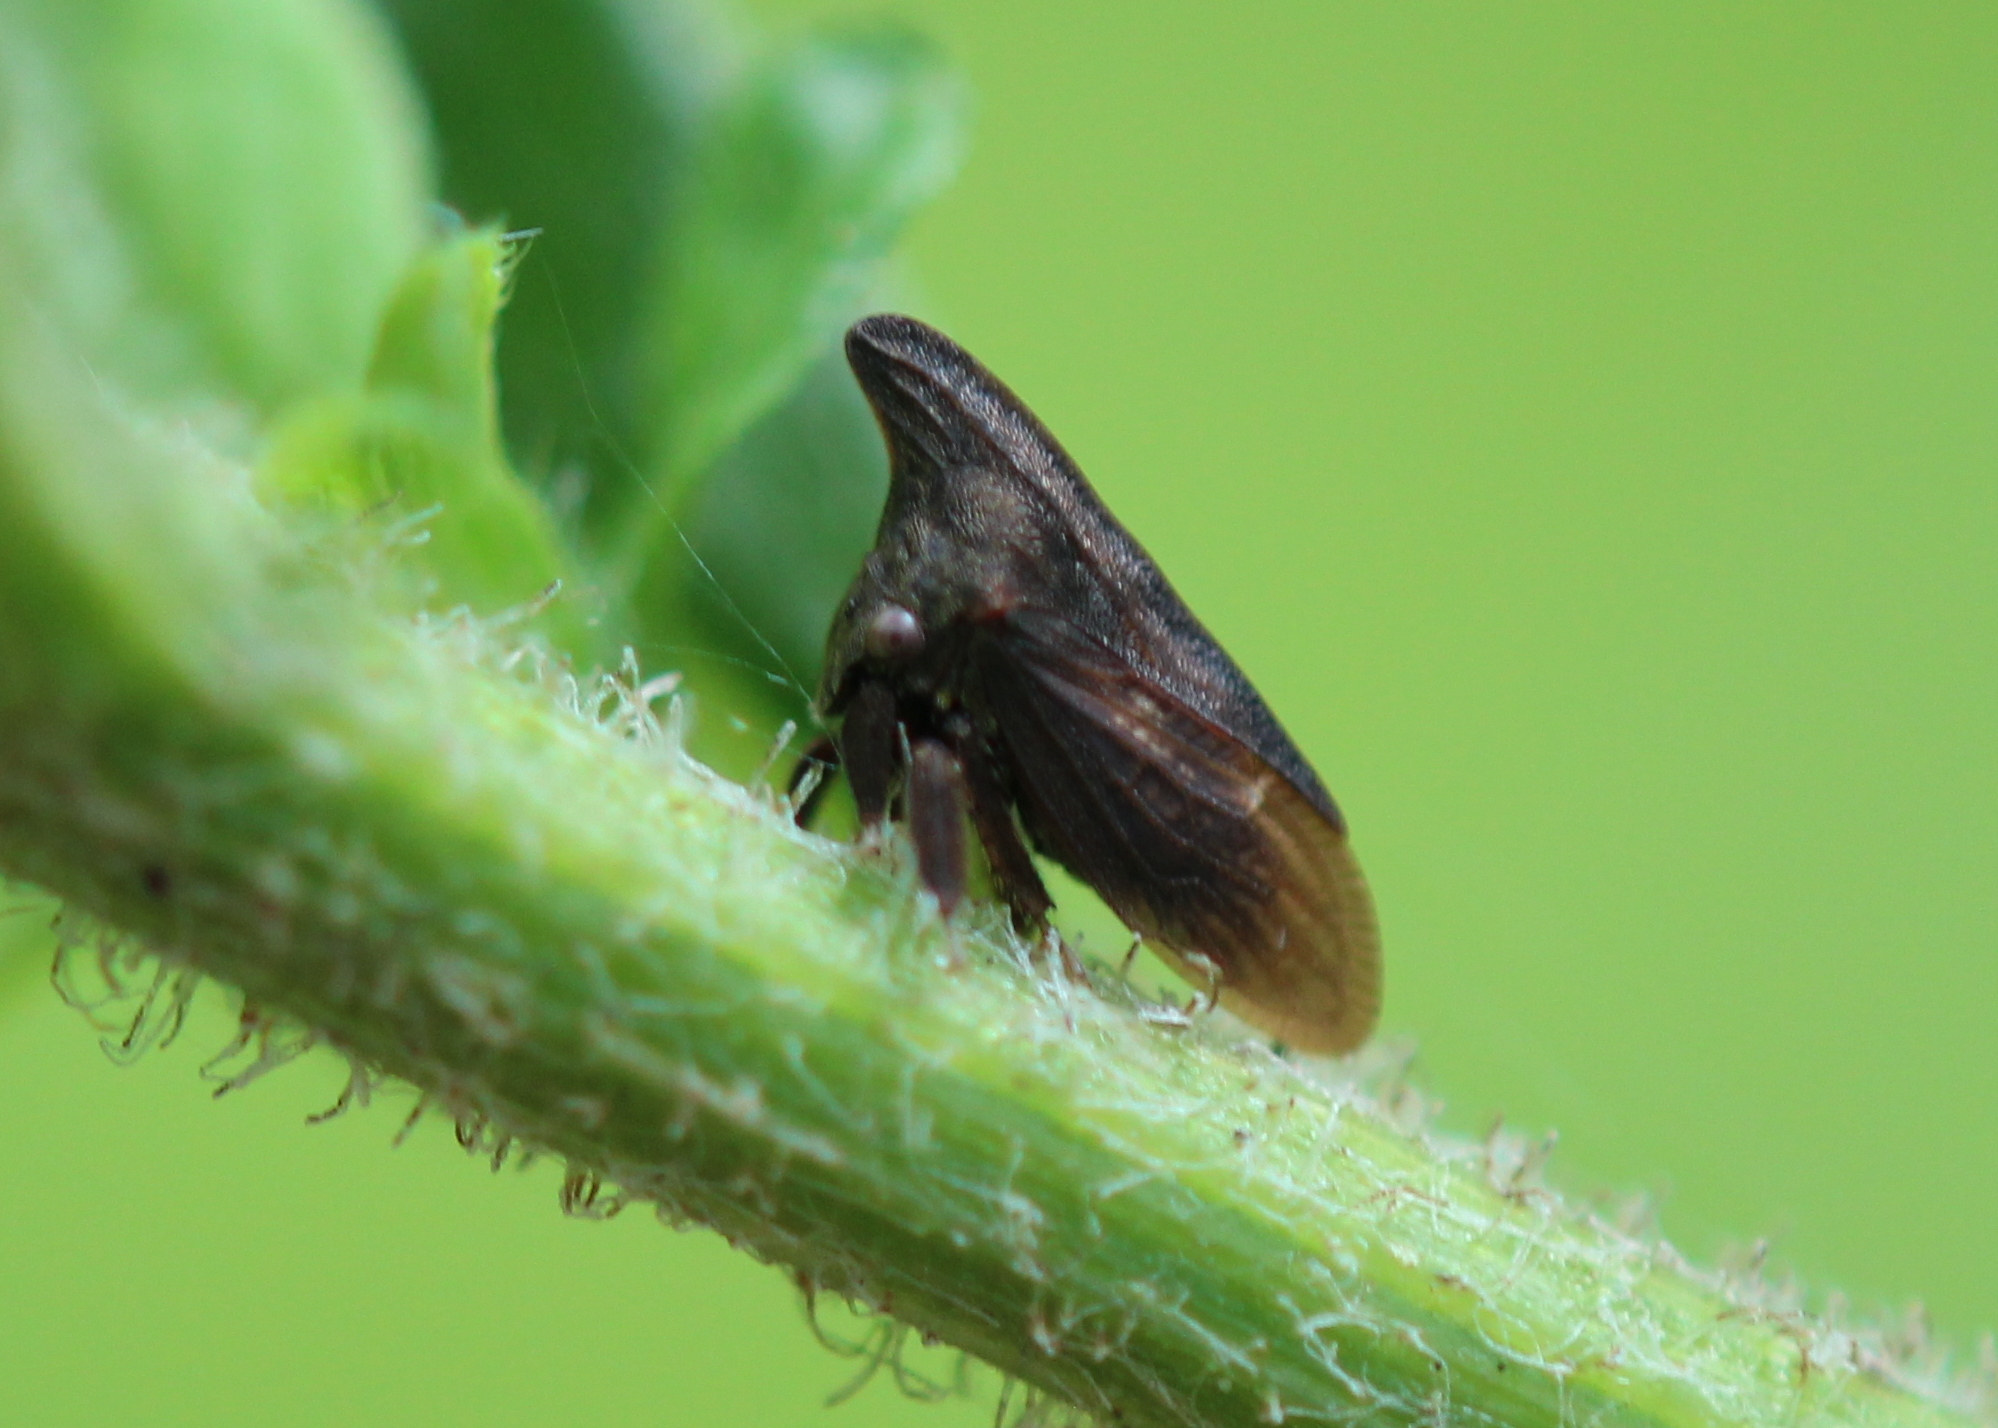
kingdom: Animalia
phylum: Arthropoda
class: Insecta
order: Hemiptera
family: Membracidae
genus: Enchenopa
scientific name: Enchenopa latipes
